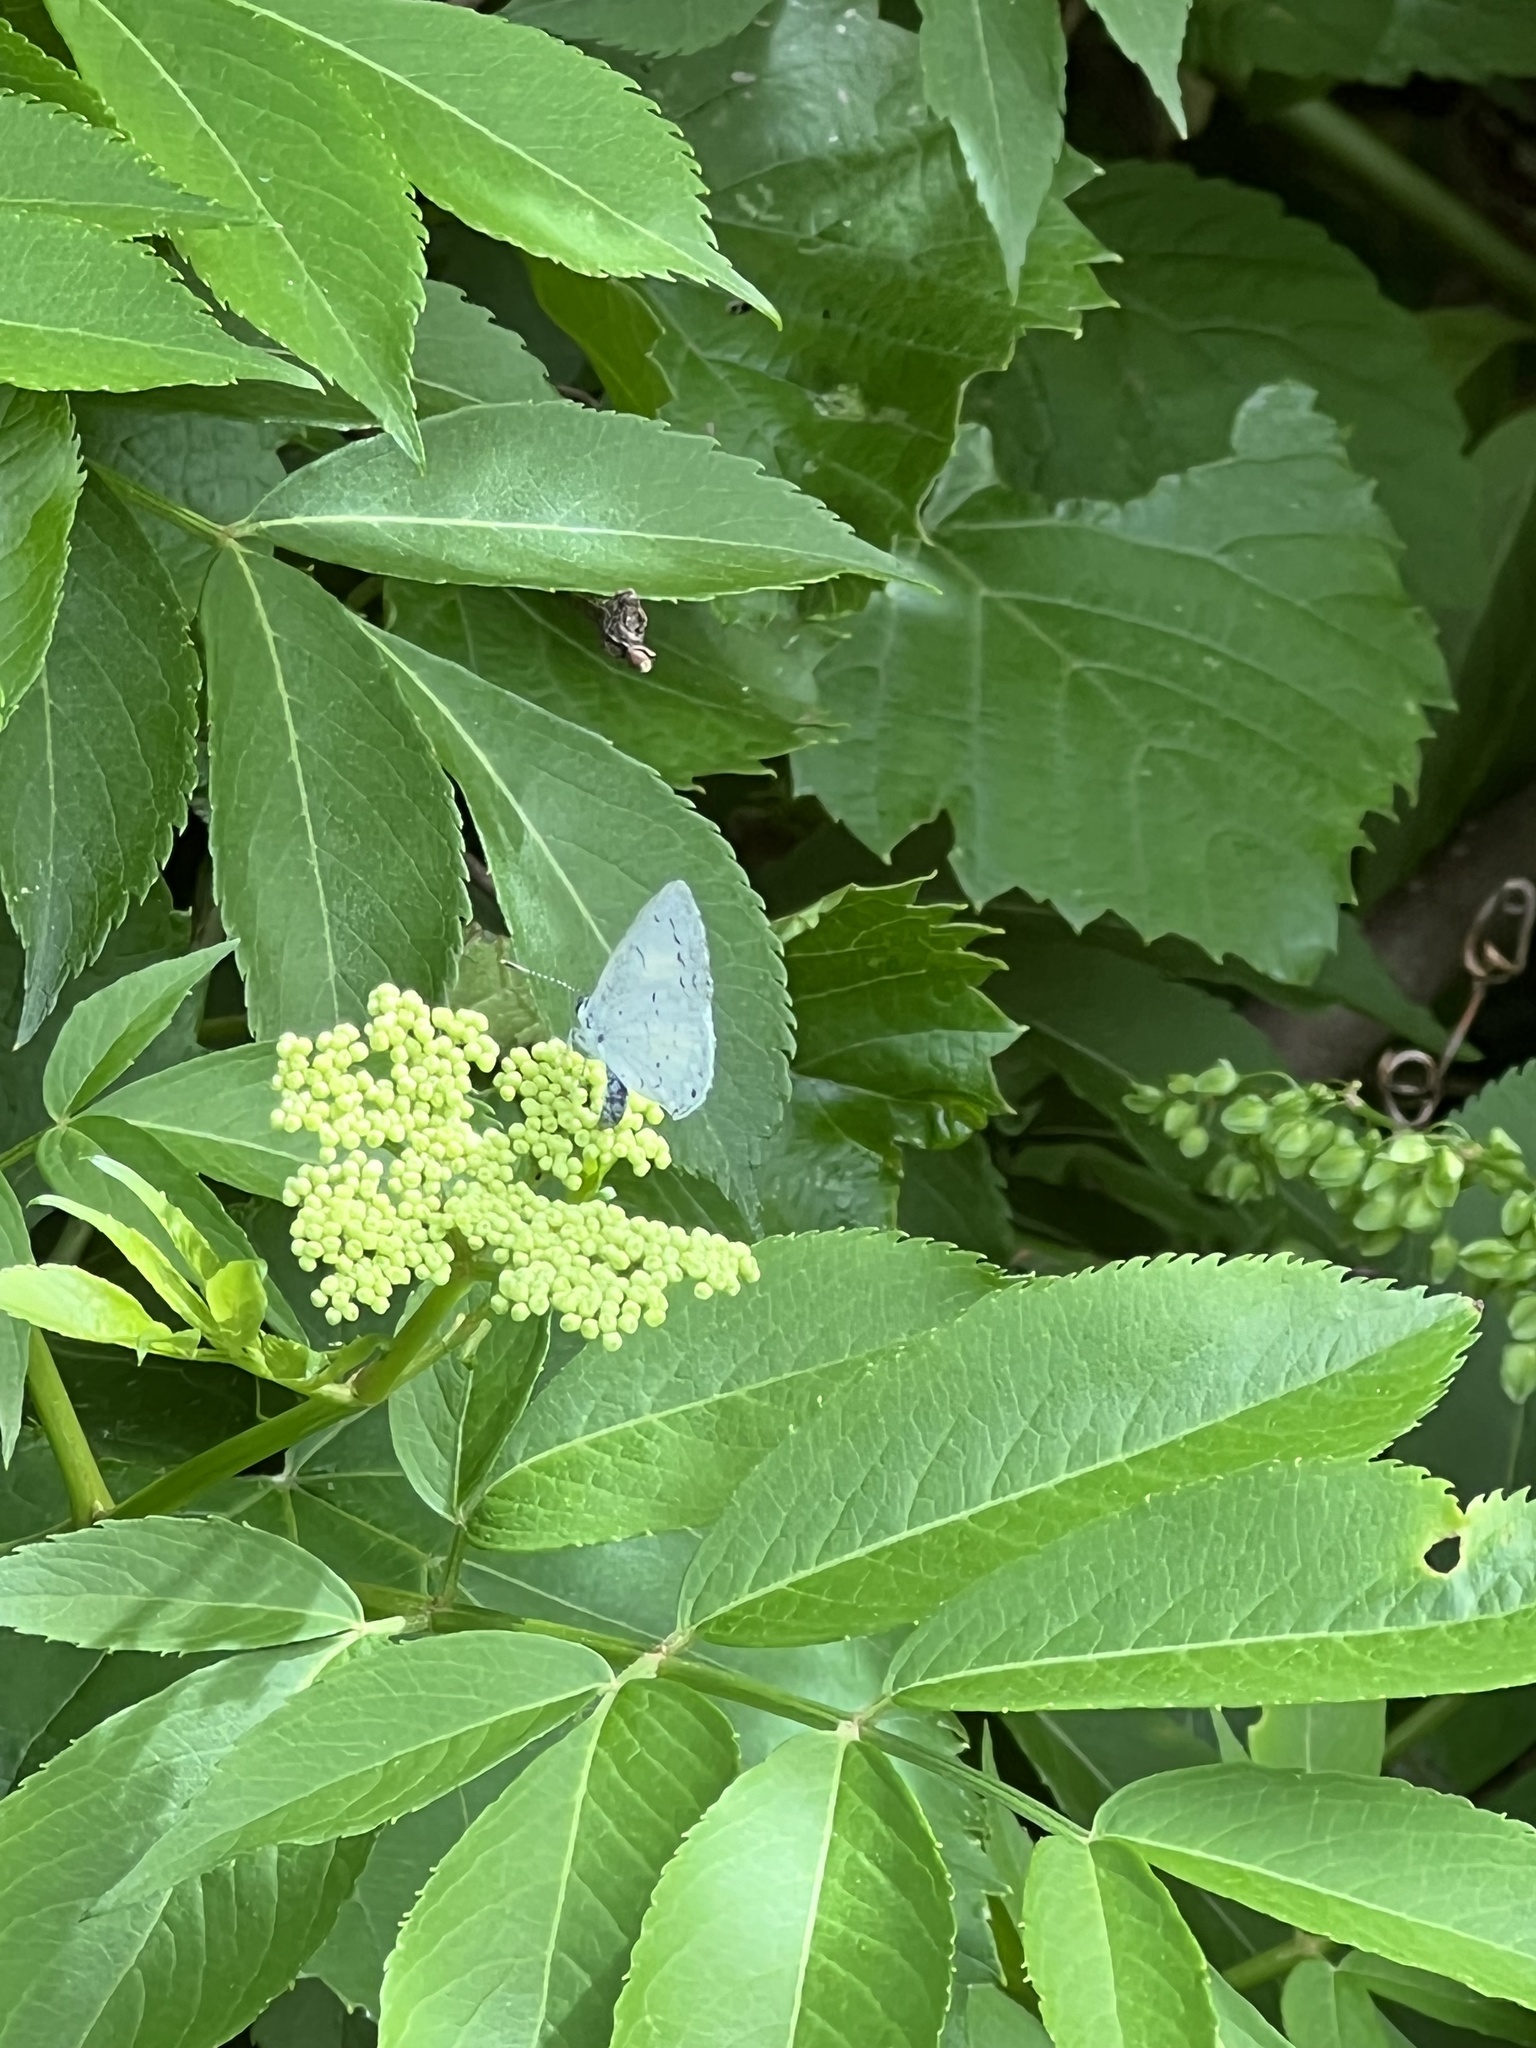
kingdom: Animalia
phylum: Arthropoda
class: Insecta
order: Lepidoptera
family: Lycaenidae
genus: Cyaniris
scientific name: Cyaniris neglecta
